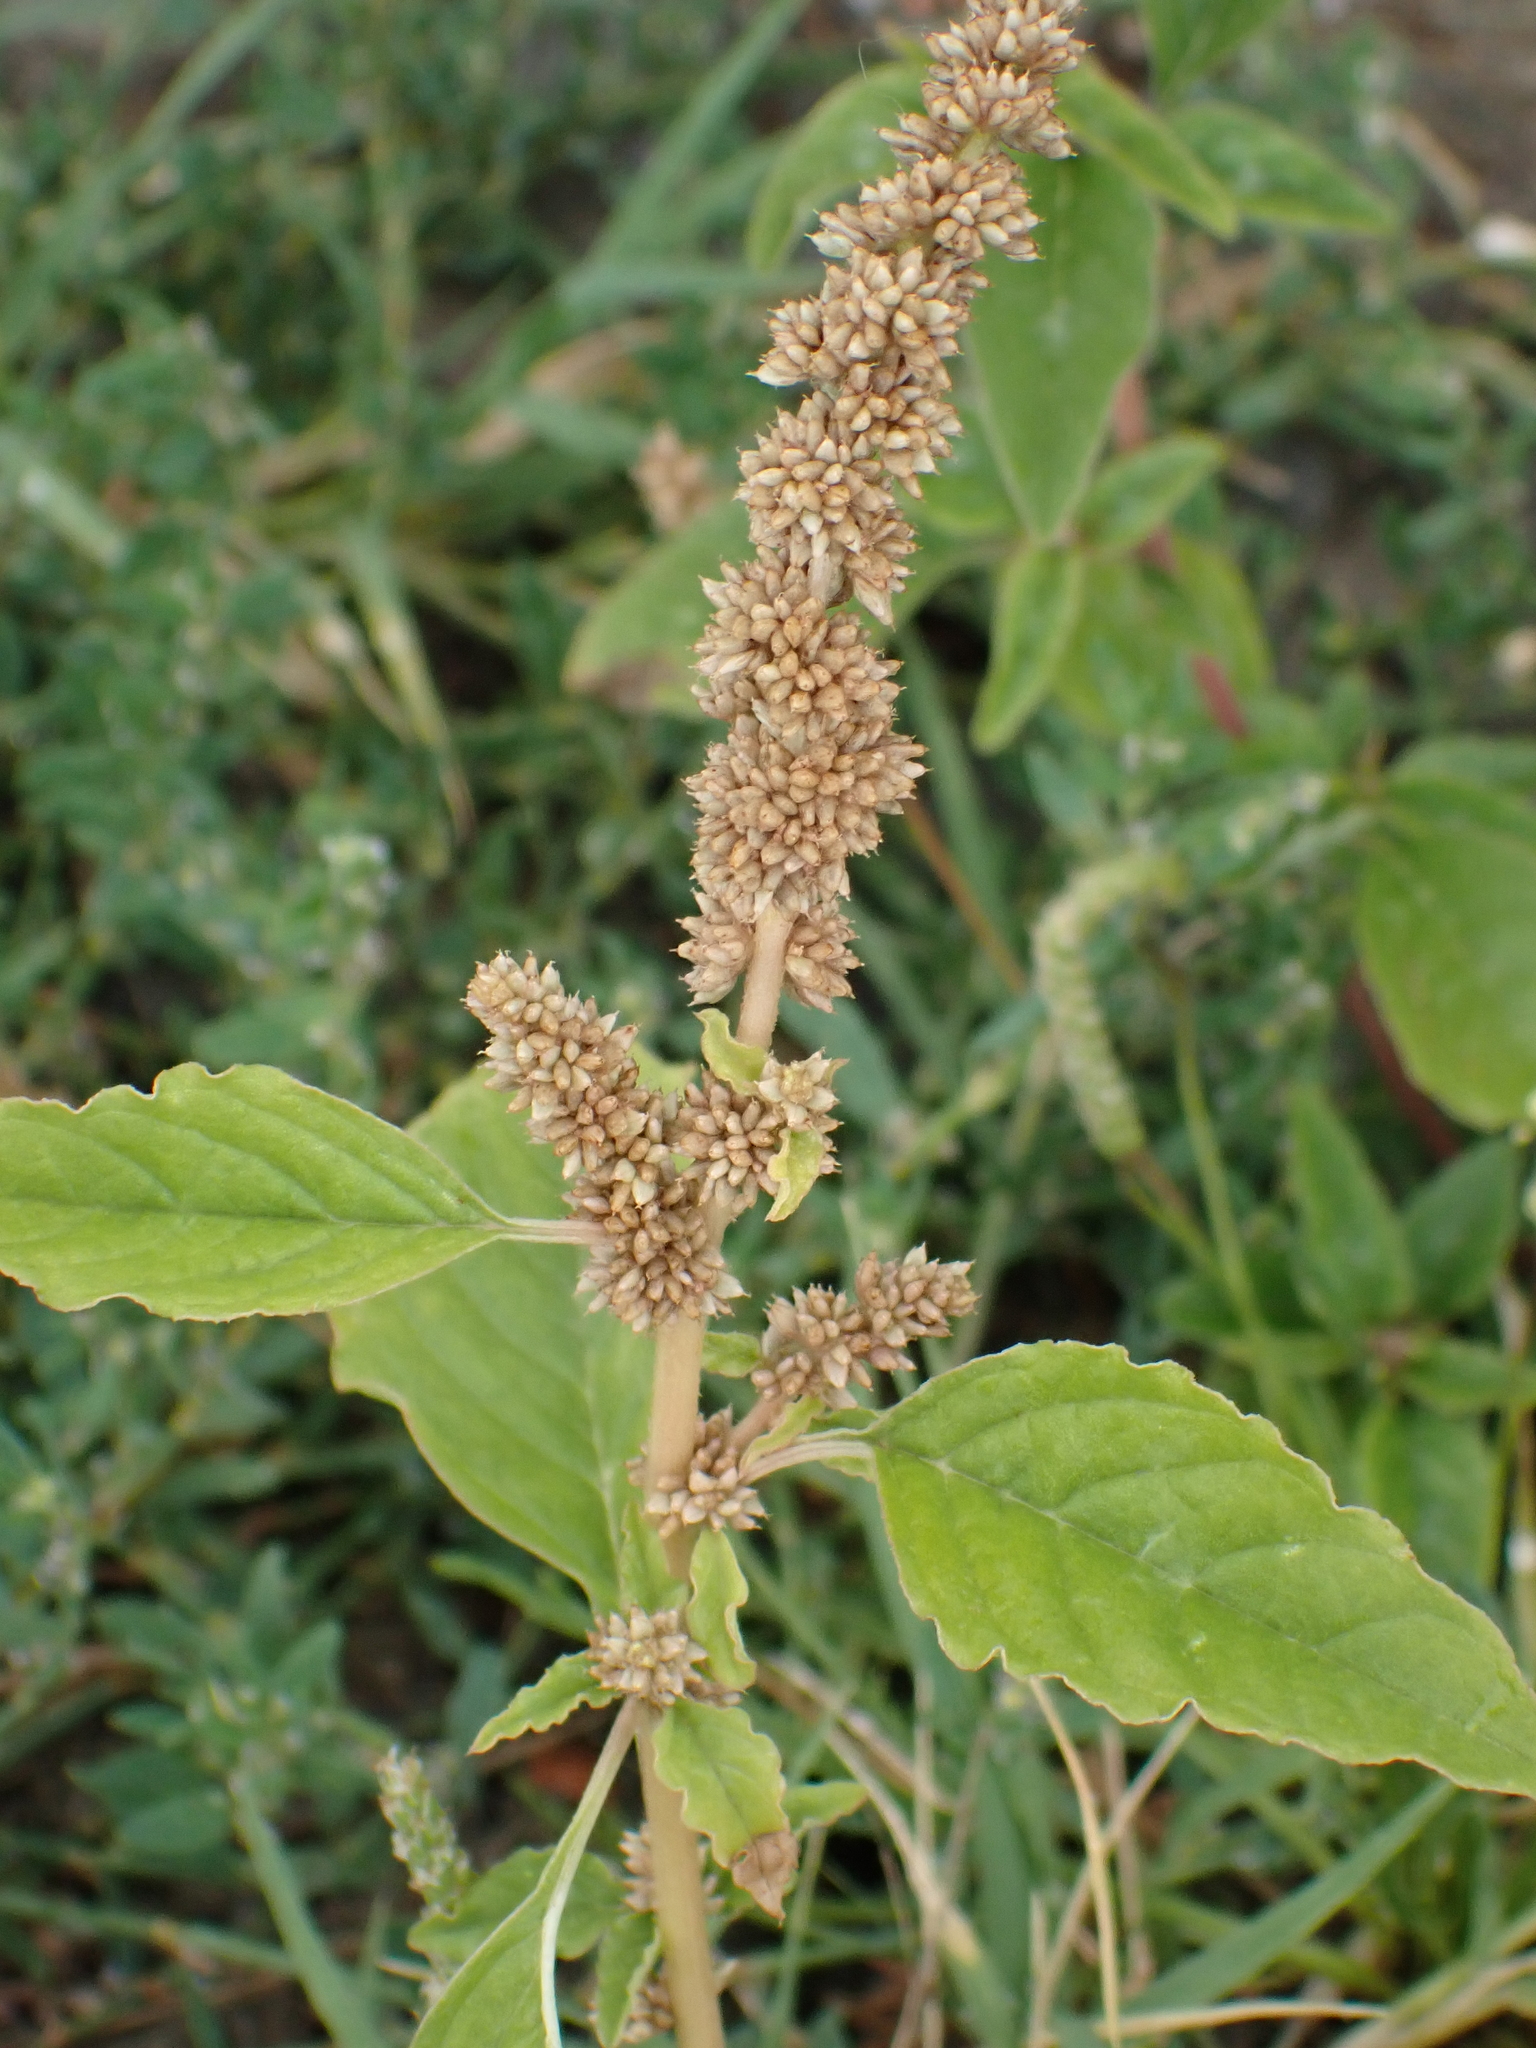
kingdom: Plantae
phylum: Tracheophyta
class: Magnoliopsida
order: Caryophyllales
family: Amaranthaceae
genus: Amaranthus
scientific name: Amaranthus deflexus
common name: Perennial pigweed
